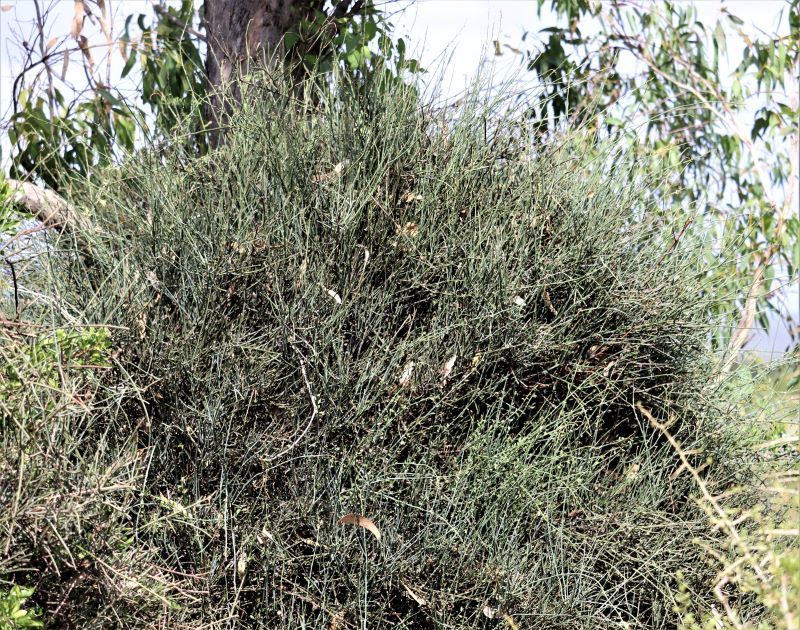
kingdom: Plantae
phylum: Tracheophyta
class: Magnoliopsida
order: Brassicales
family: Capparaceae
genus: Cadaba
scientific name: Cadaba aphylla
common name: Black storm
